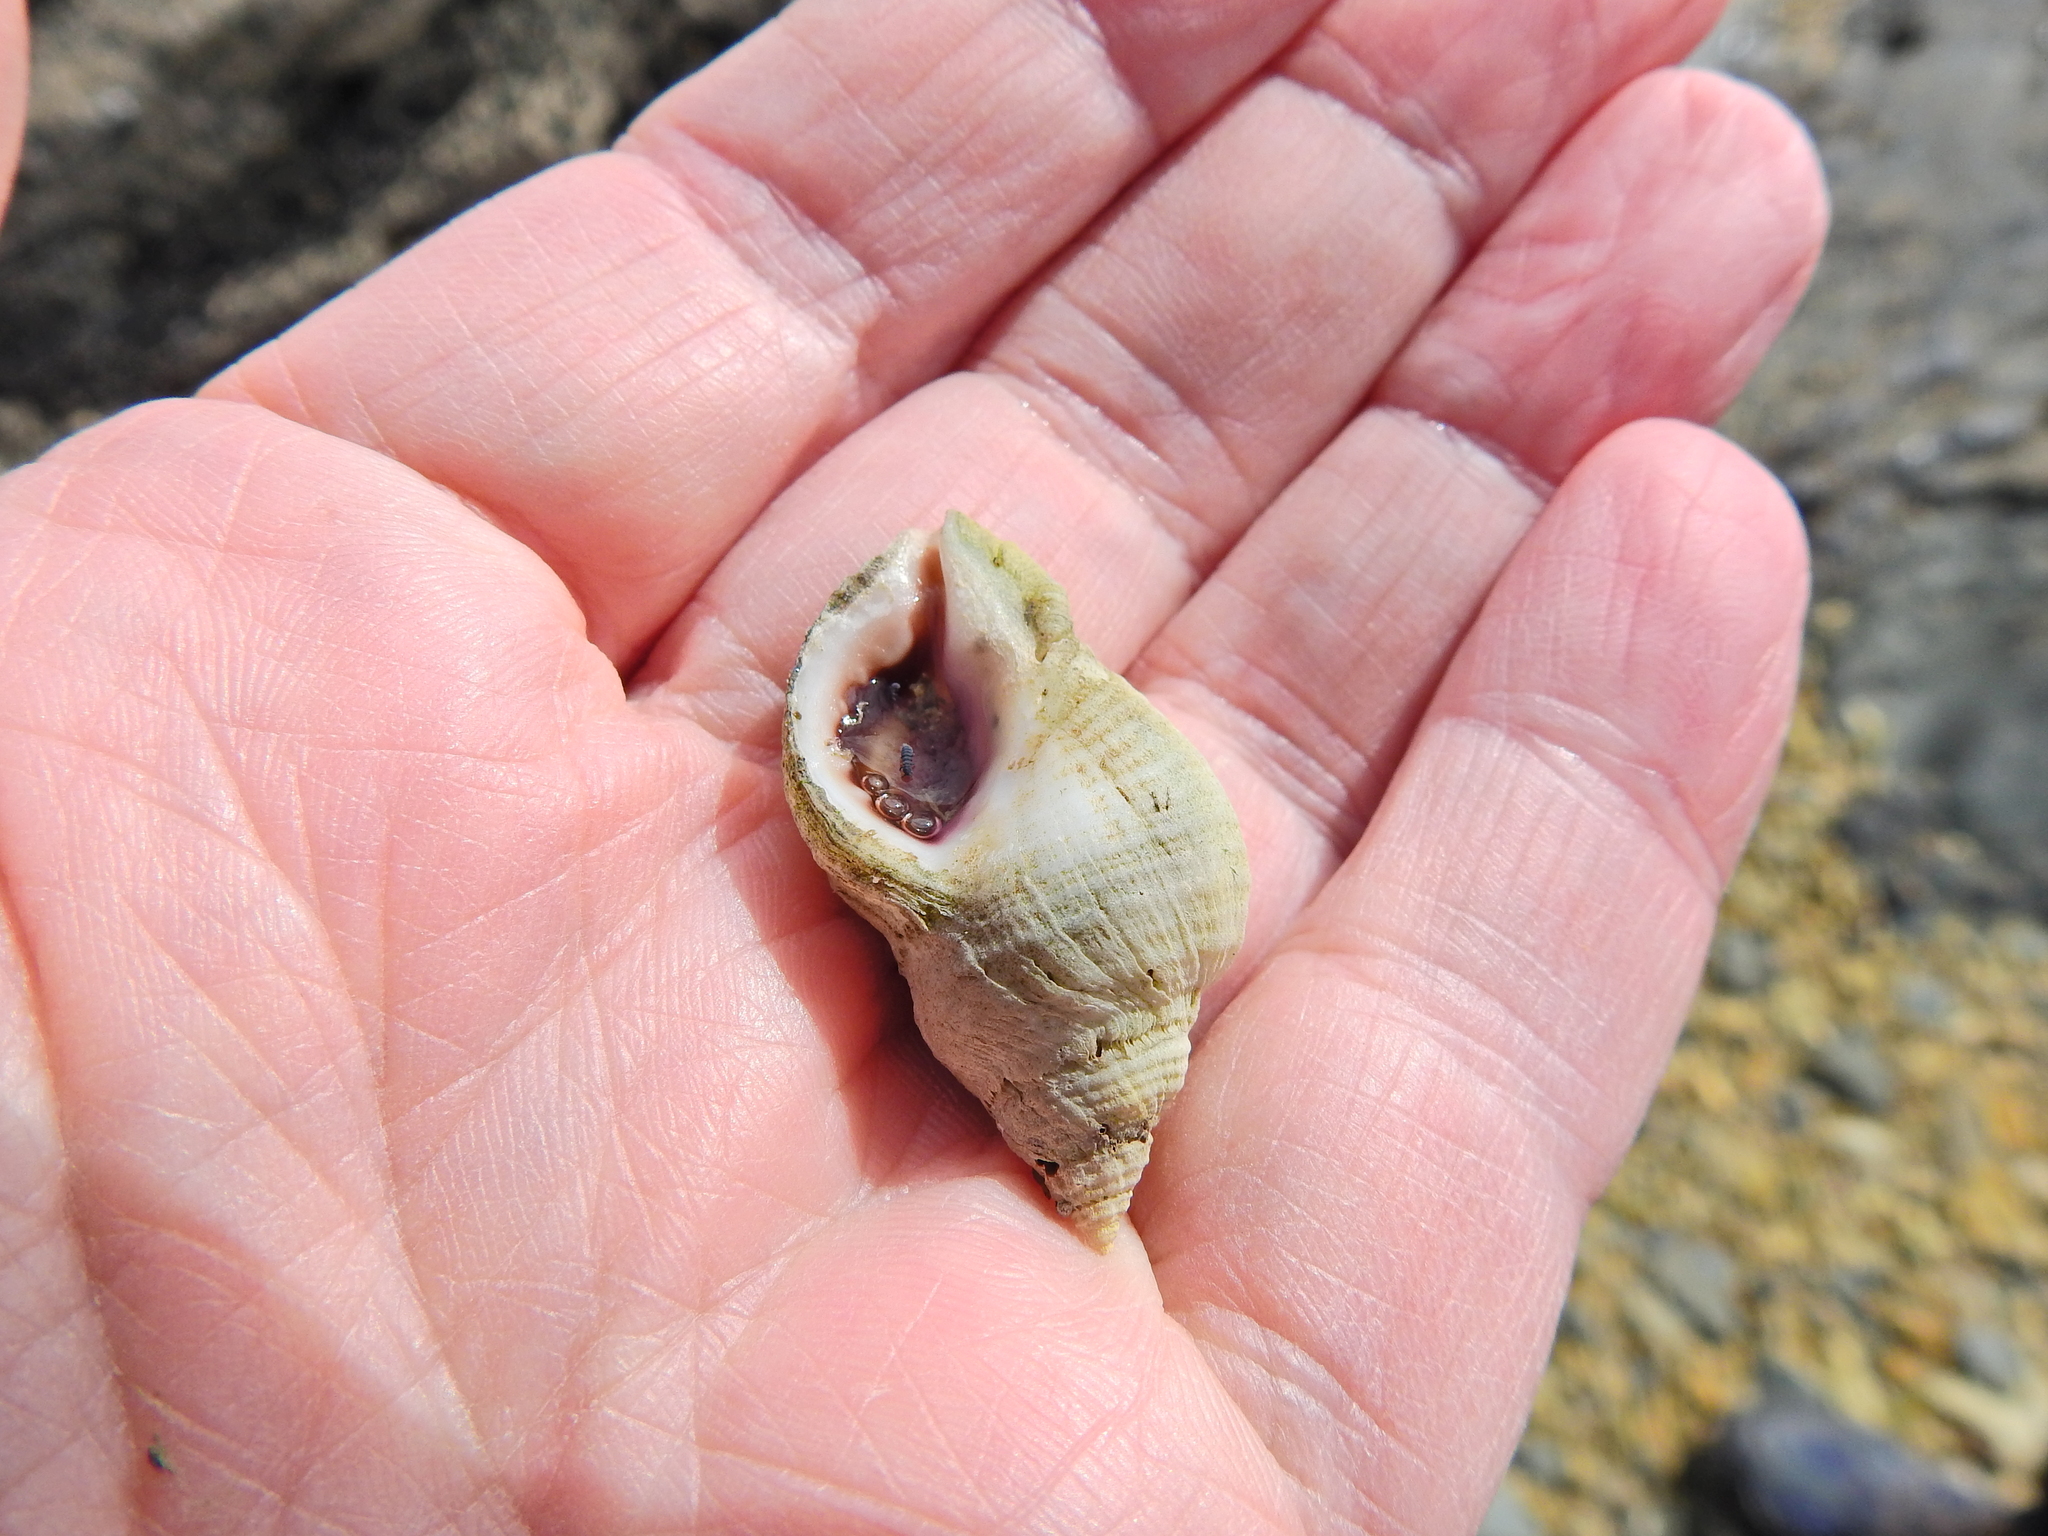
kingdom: Animalia
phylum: Mollusca
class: Gastropoda
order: Neogastropoda
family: Muricidae
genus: Nucella
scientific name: Nucella lapillus
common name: Dog whelk
